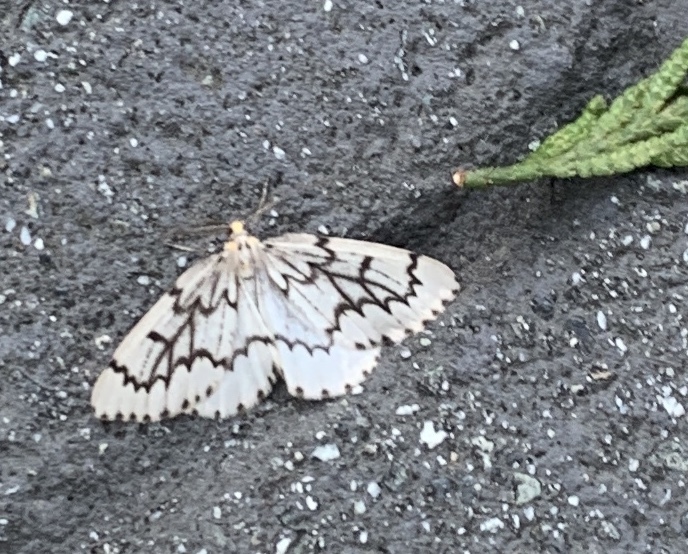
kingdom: Animalia
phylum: Arthropoda
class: Insecta
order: Lepidoptera
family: Geometridae
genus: Nepytia
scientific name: Nepytia phantasmaria
